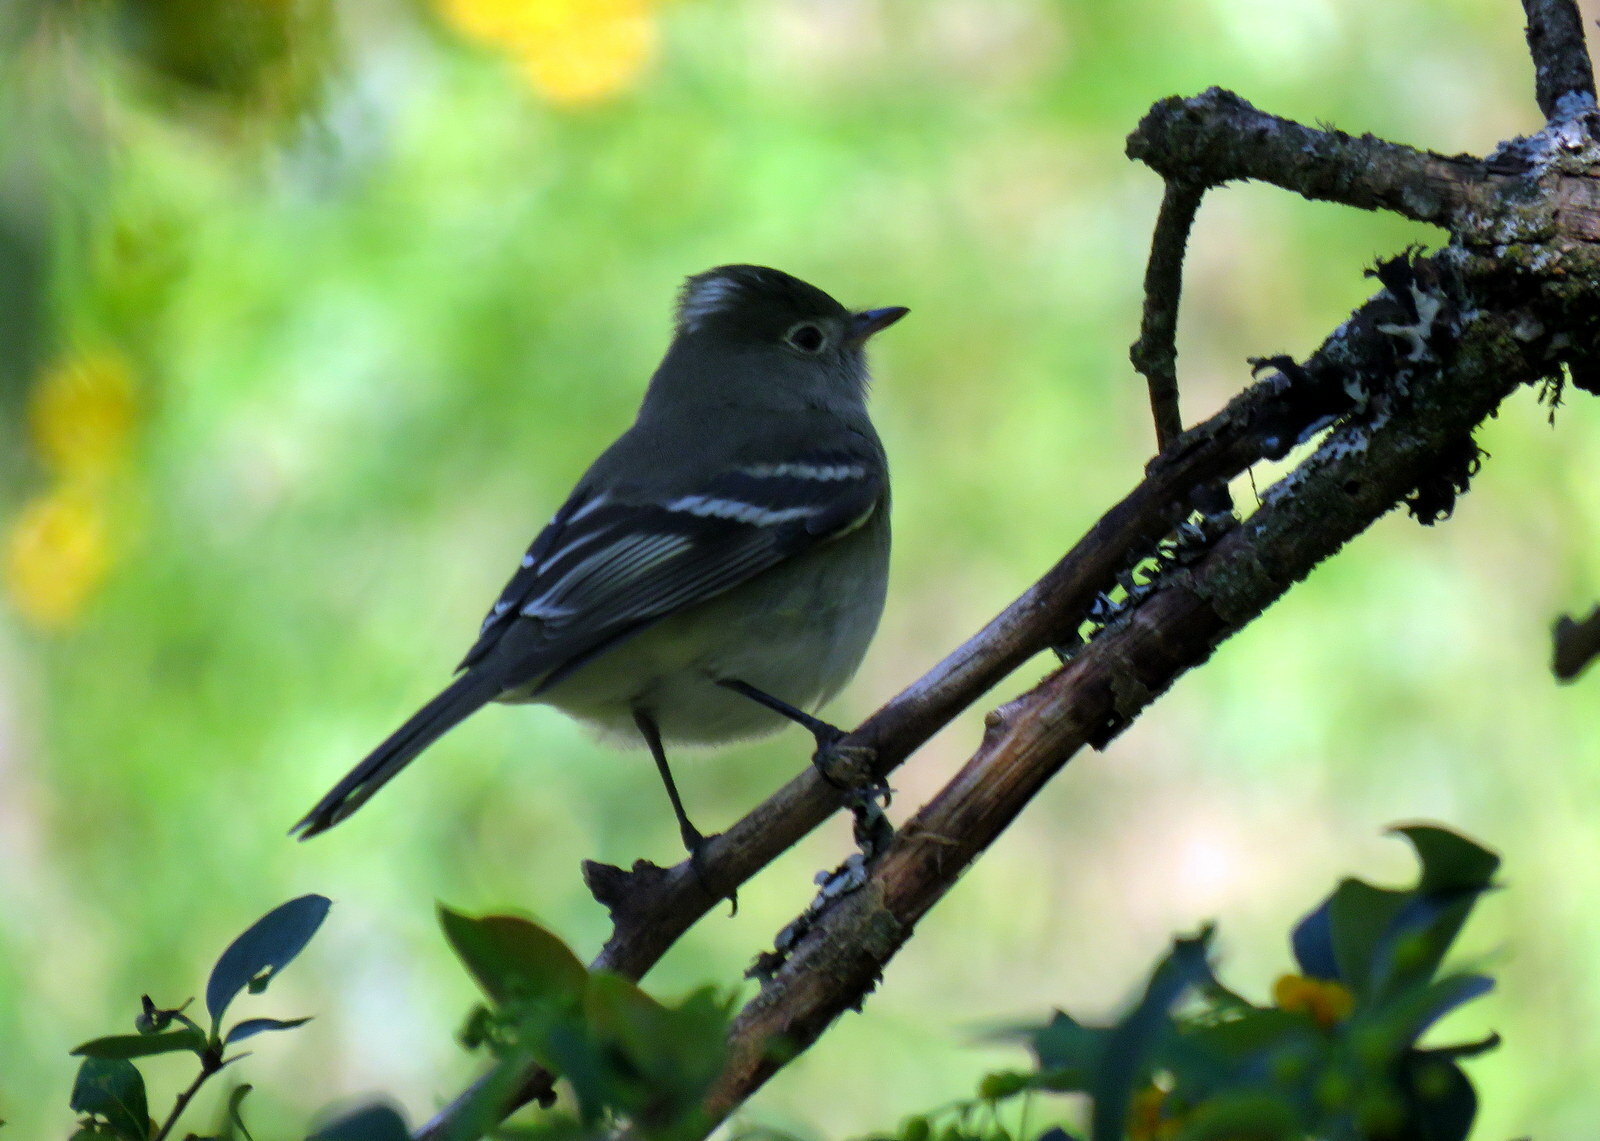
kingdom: Animalia
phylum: Chordata
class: Aves
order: Passeriformes
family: Tyrannidae
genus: Elaenia
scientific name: Elaenia albiceps
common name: White-crested elaenia
